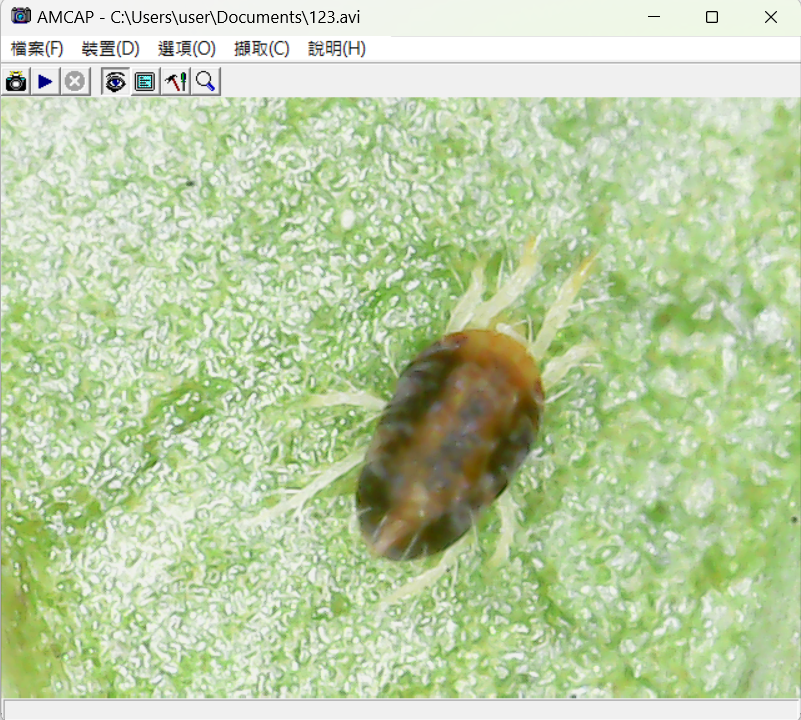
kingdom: Animalia
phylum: Arthropoda
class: Arachnida
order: Trombidiformes
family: Tetranychidae
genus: Tetranychus
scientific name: Tetranychus urticae
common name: Carmine spider mite
